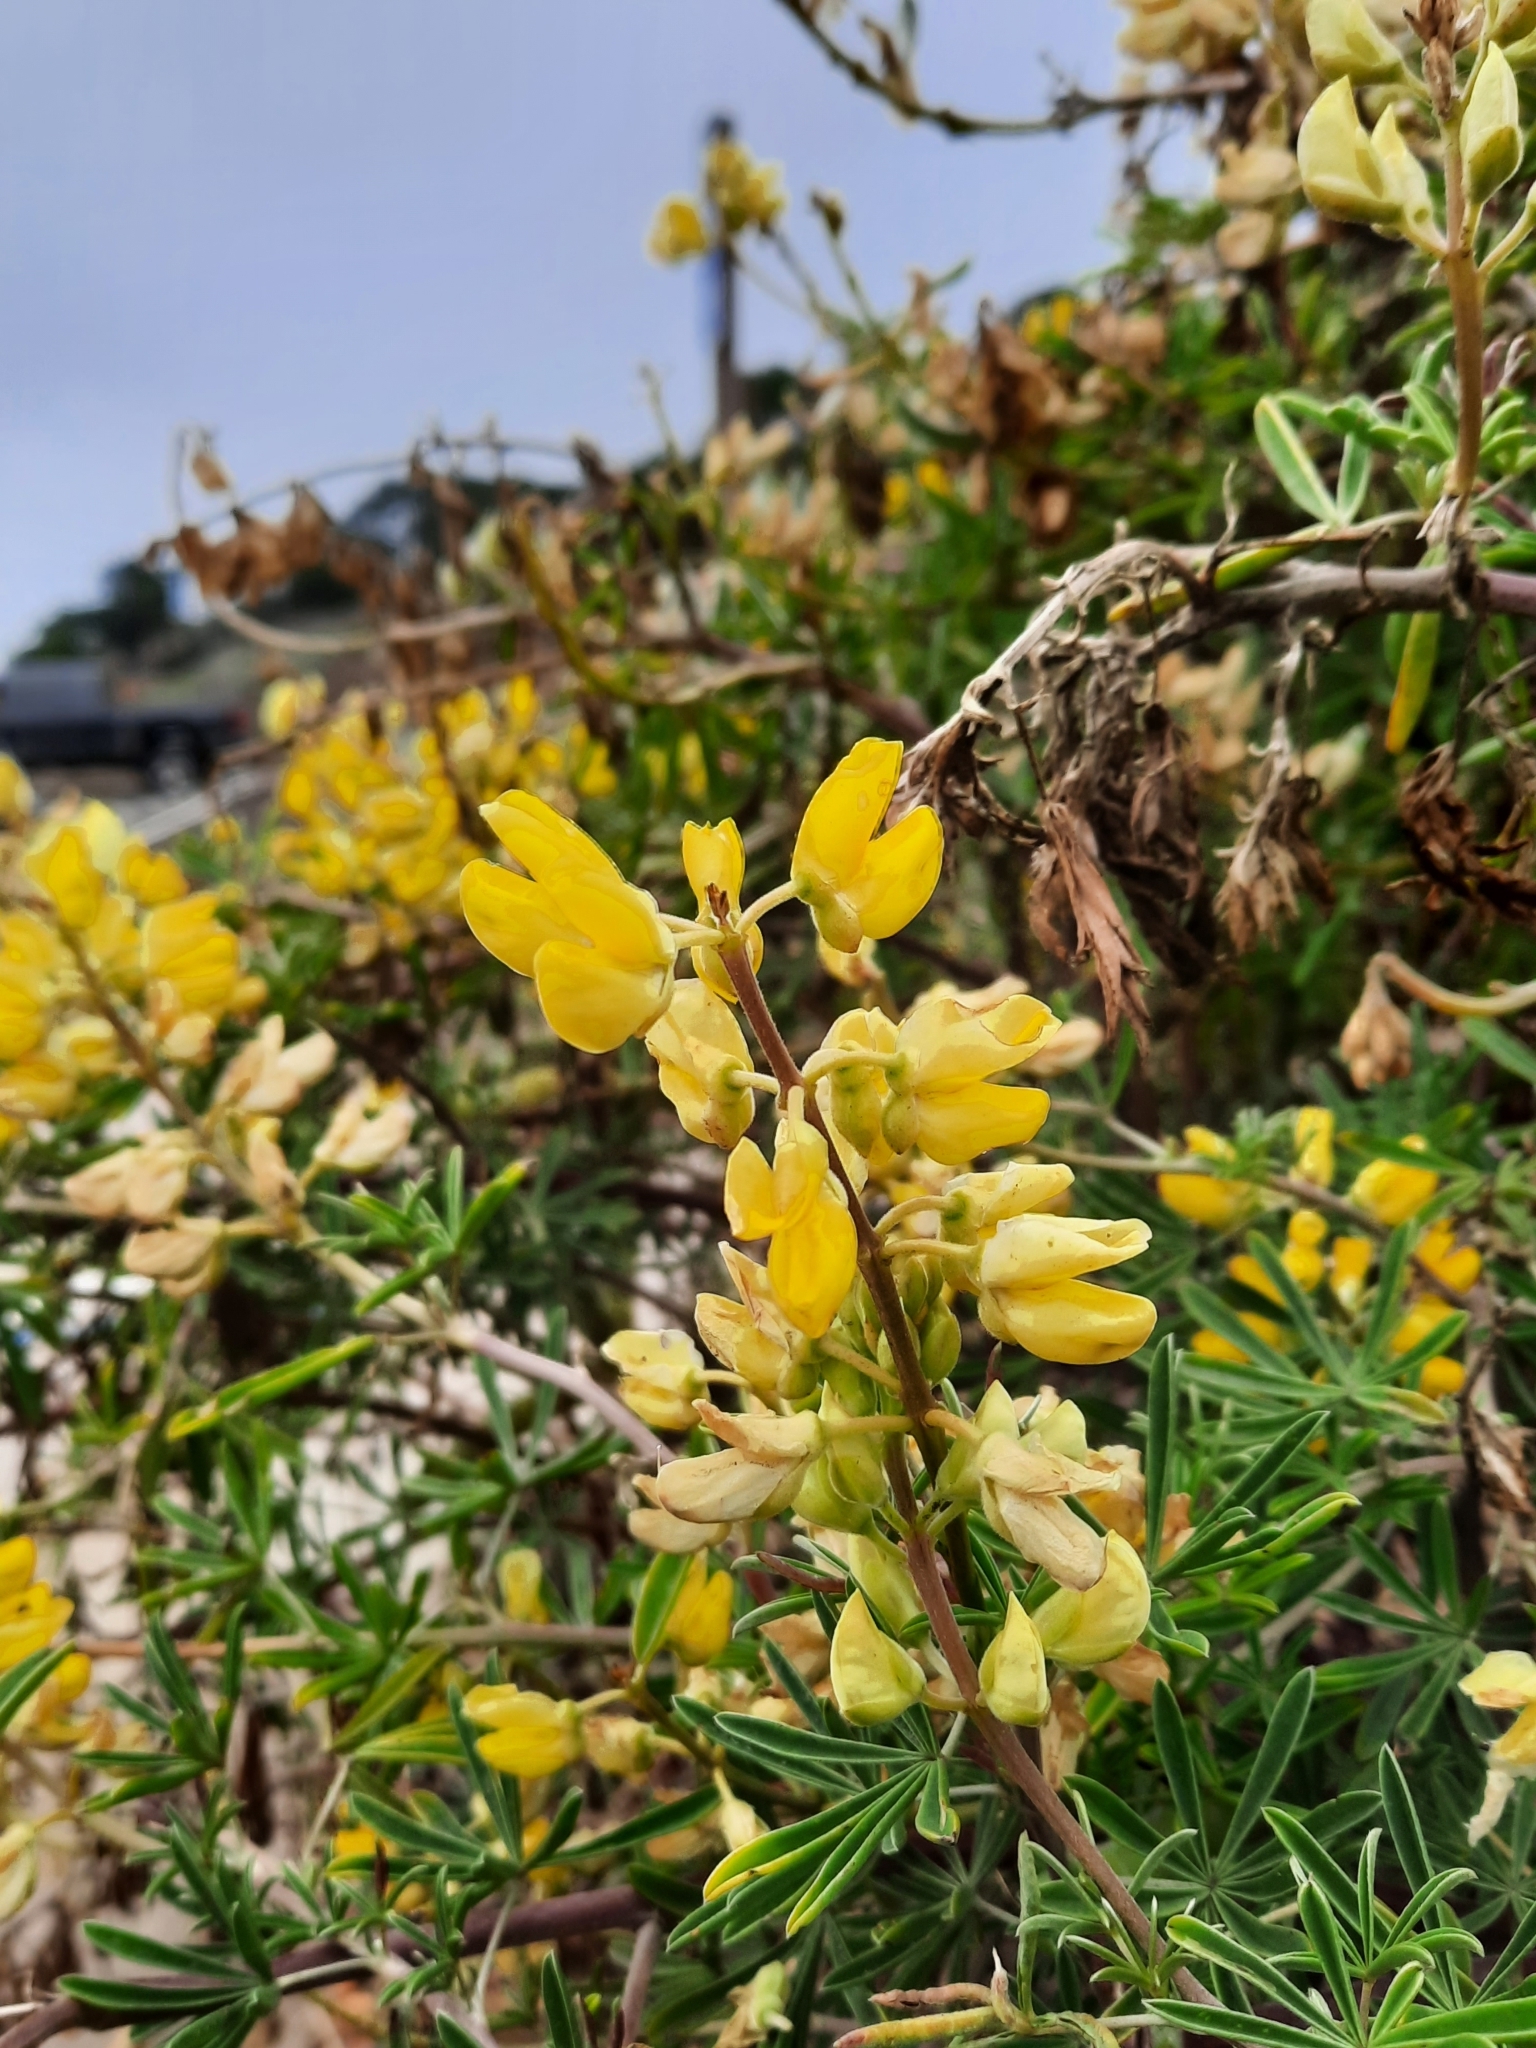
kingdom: Plantae
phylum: Tracheophyta
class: Magnoliopsida
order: Fabales
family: Fabaceae
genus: Lupinus
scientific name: Lupinus arboreus
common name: Yellow bush lupine
